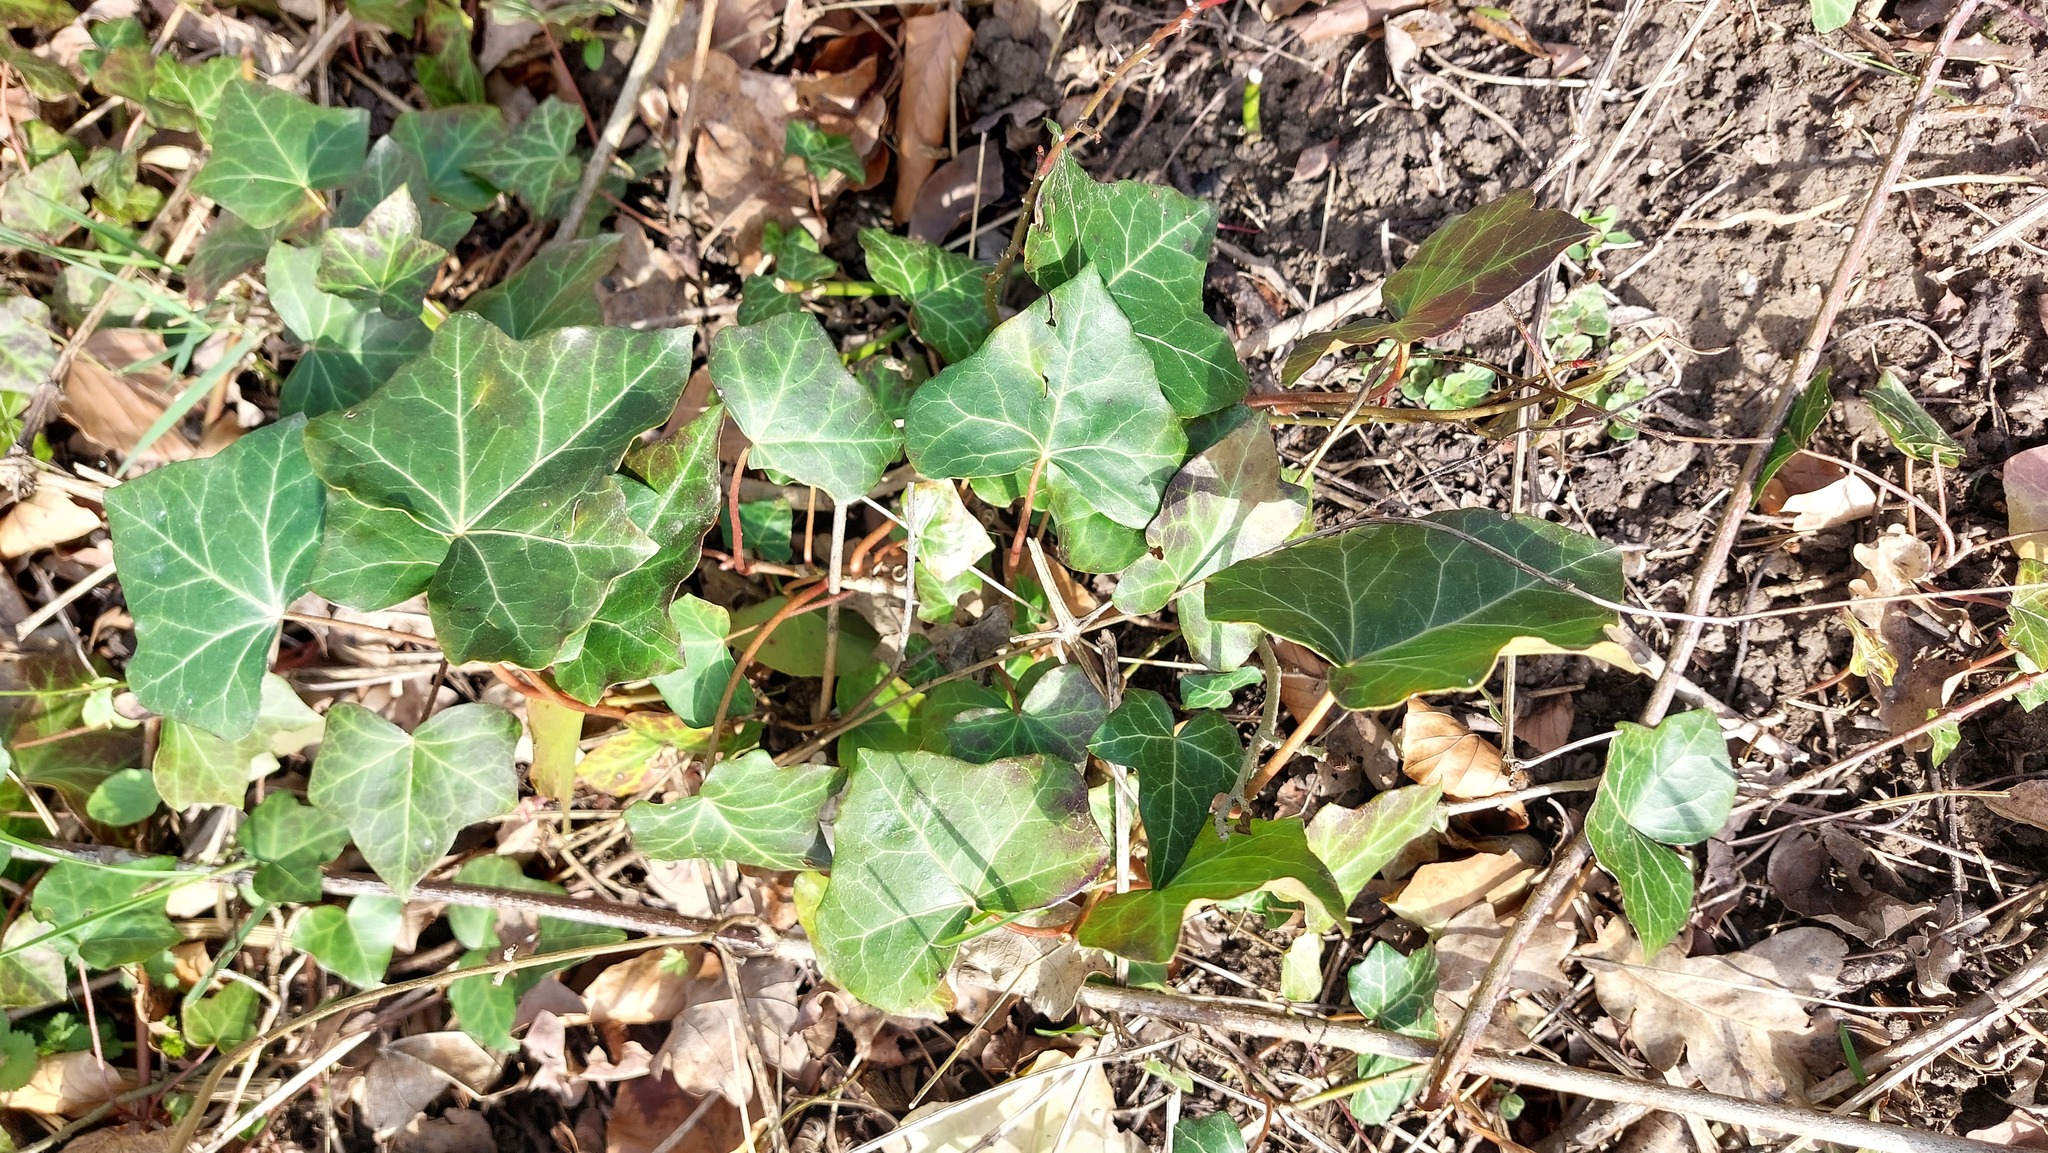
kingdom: Plantae
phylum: Tracheophyta
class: Magnoliopsida
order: Apiales
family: Araliaceae
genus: Hedera
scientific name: Hedera helix
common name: Ivy
